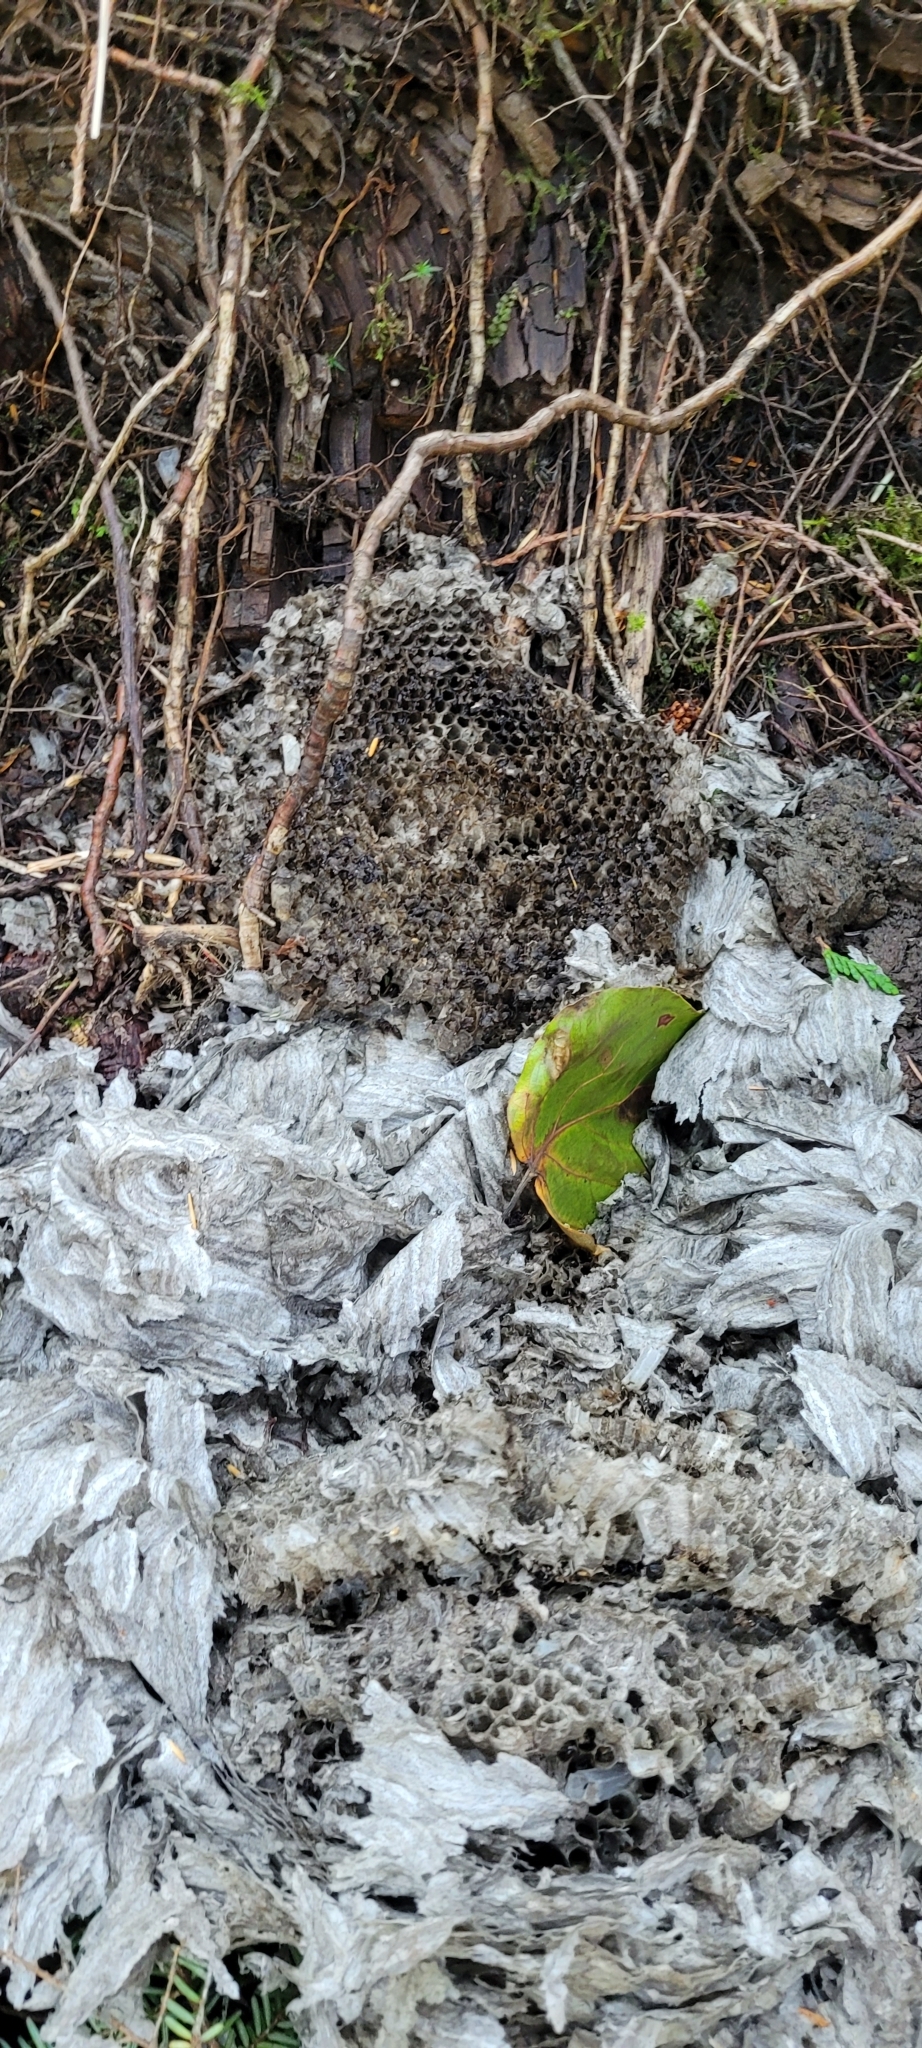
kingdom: Animalia
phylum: Arthropoda
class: Insecta
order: Hymenoptera
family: Vespidae
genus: Dolichovespula
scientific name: Dolichovespula
